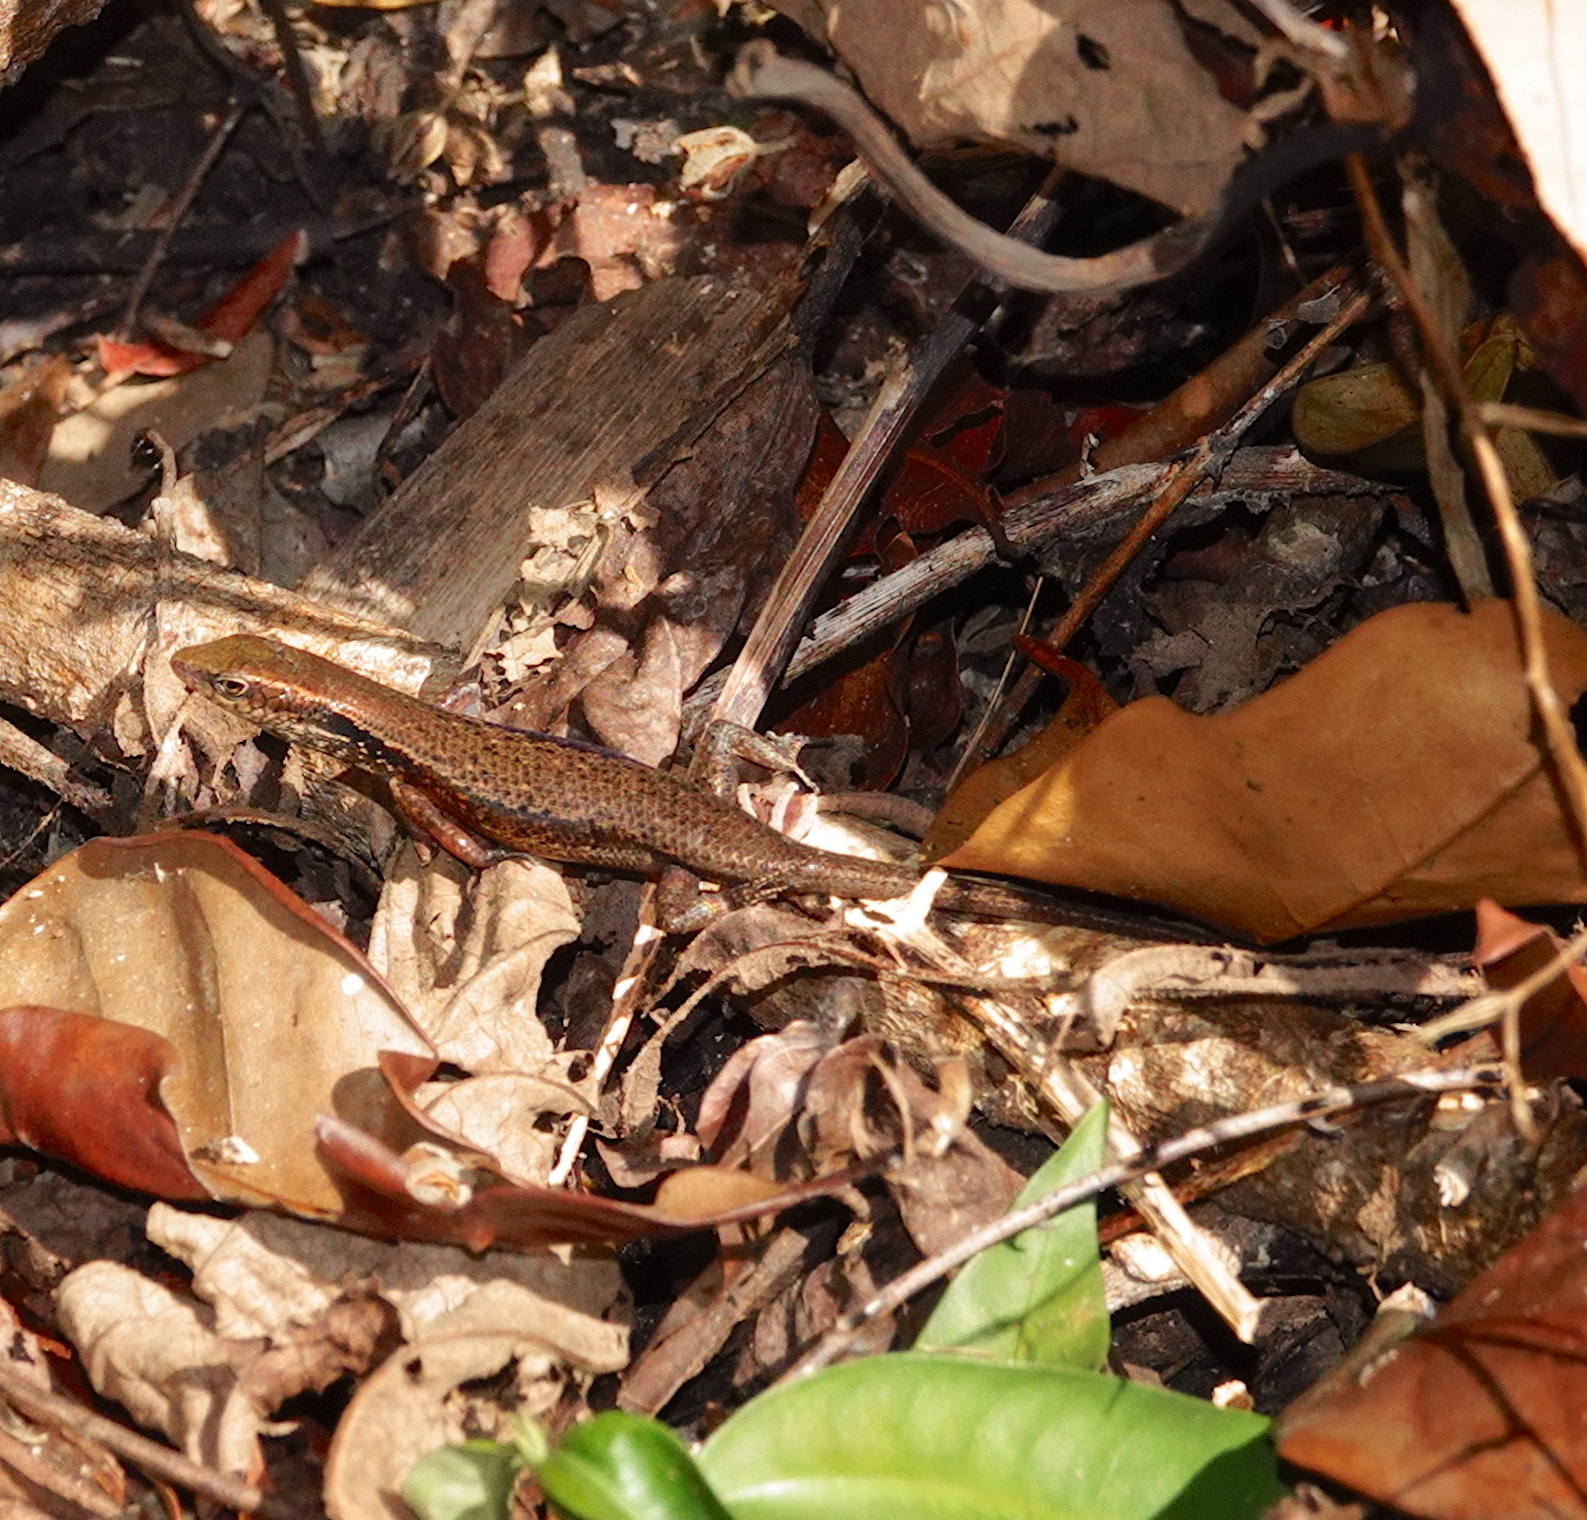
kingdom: Animalia
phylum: Chordata
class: Squamata
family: Scincidae
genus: Carlia
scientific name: Carlia babarensis
